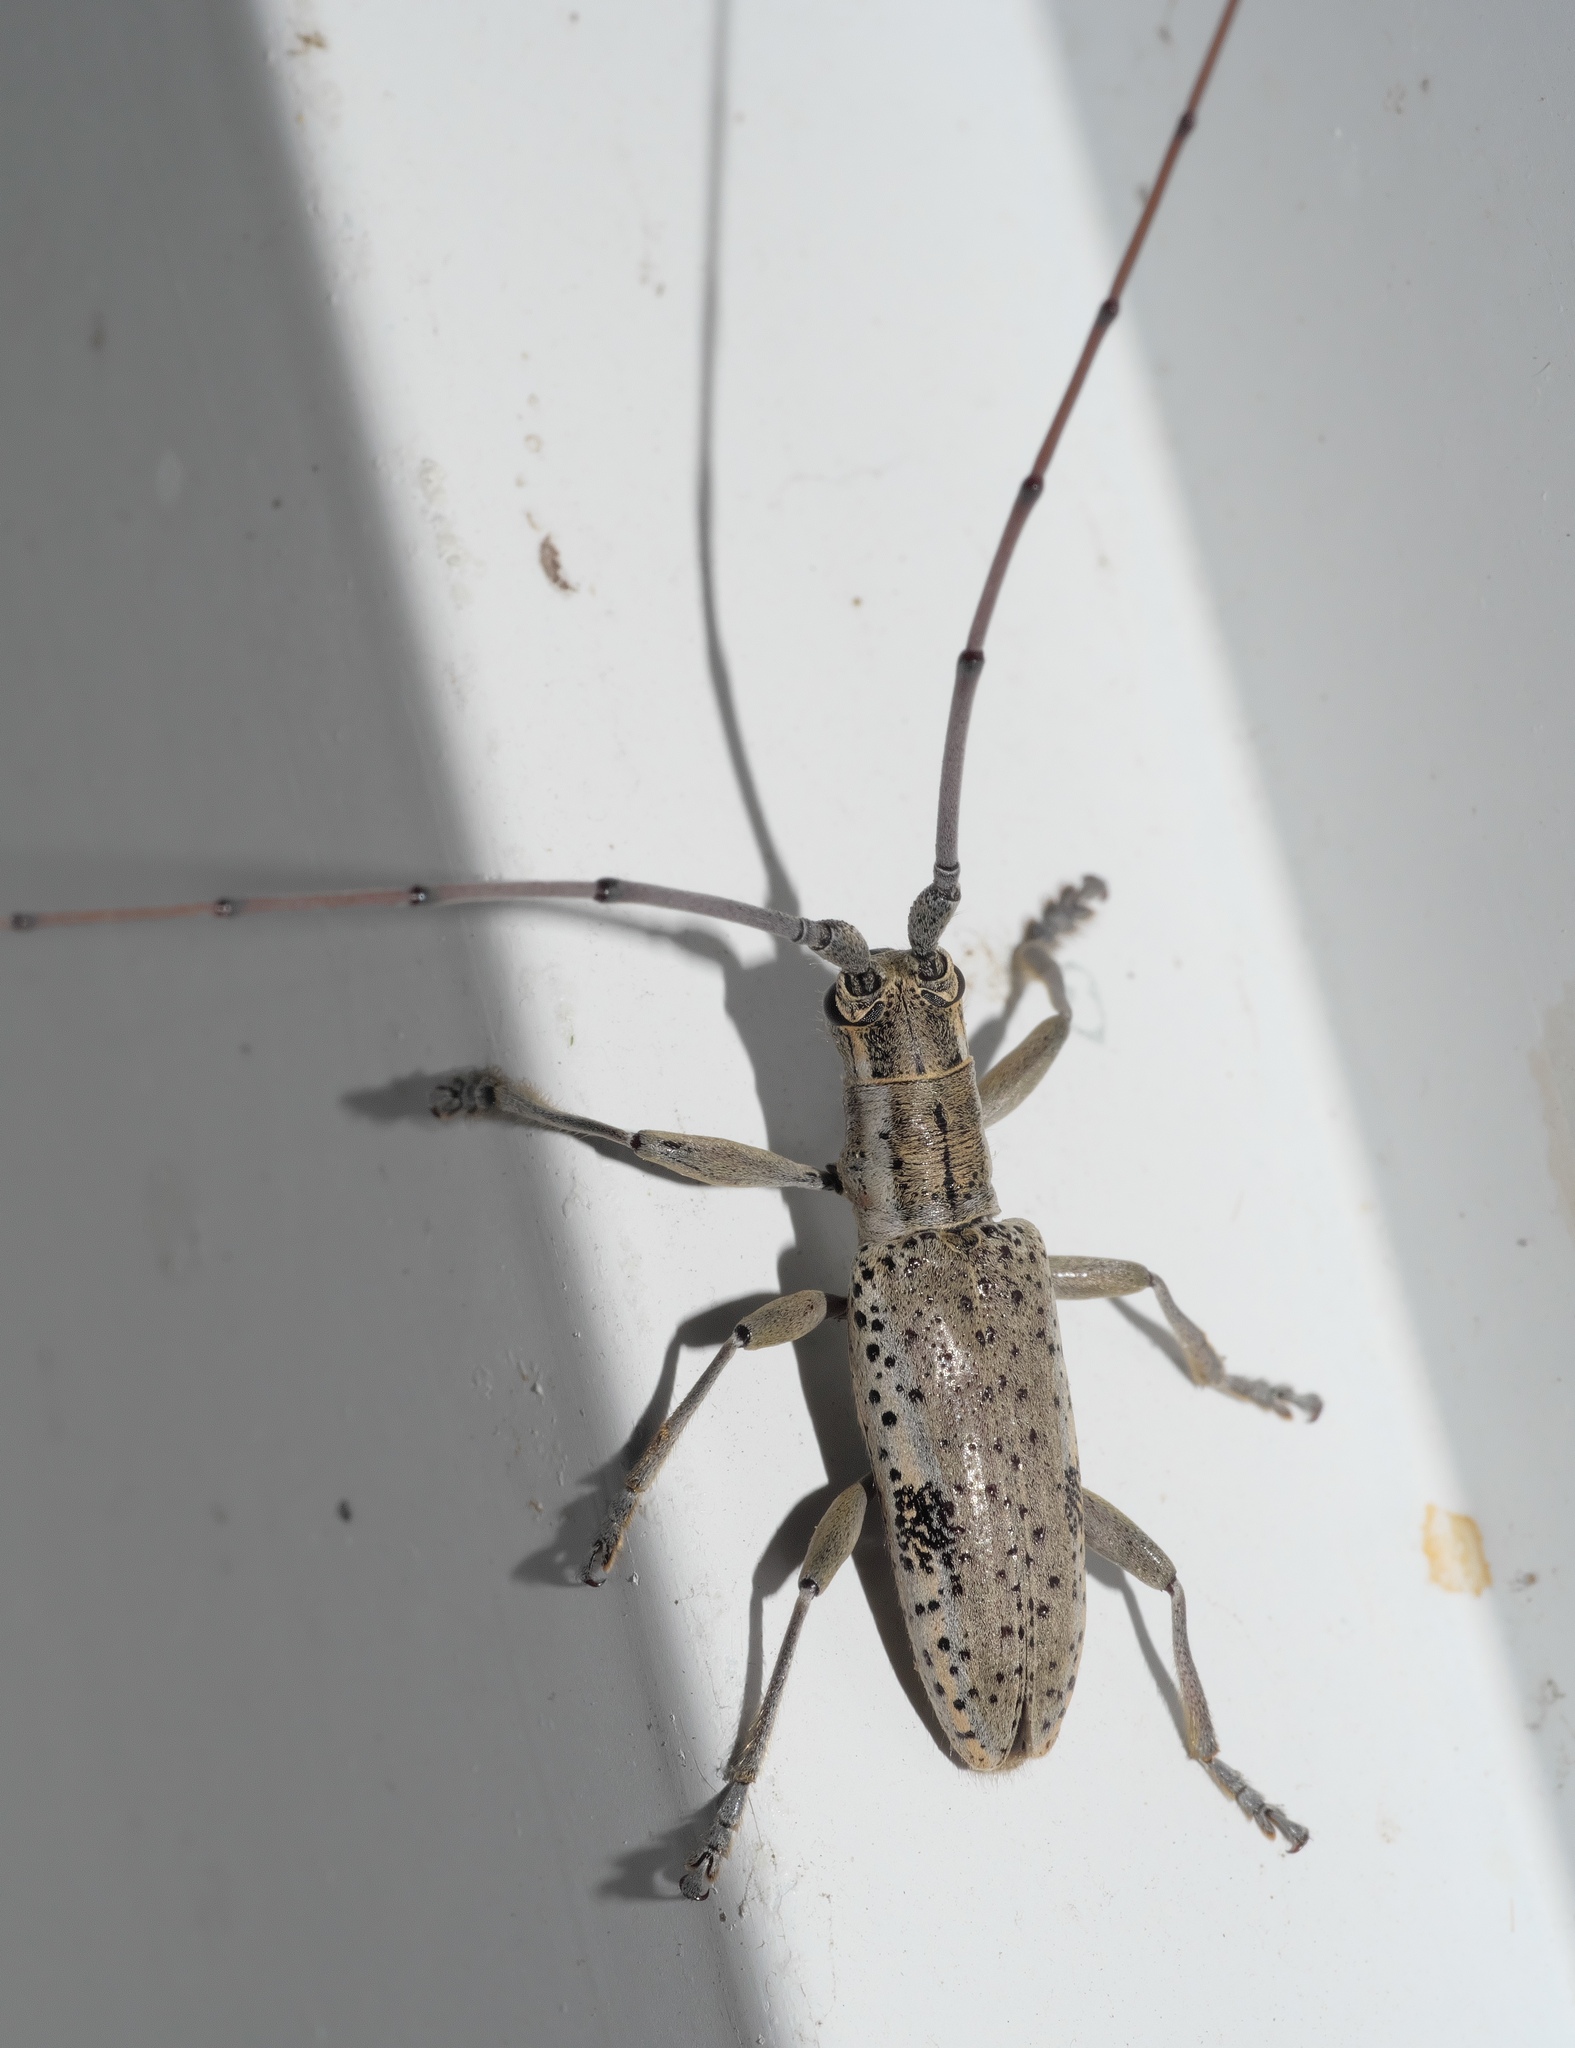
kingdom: Animalia
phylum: Arthropoda
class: Insecta
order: Coleoptera
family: Cerambycidae
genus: Dorcaschema
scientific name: Dorcaschema wildii
